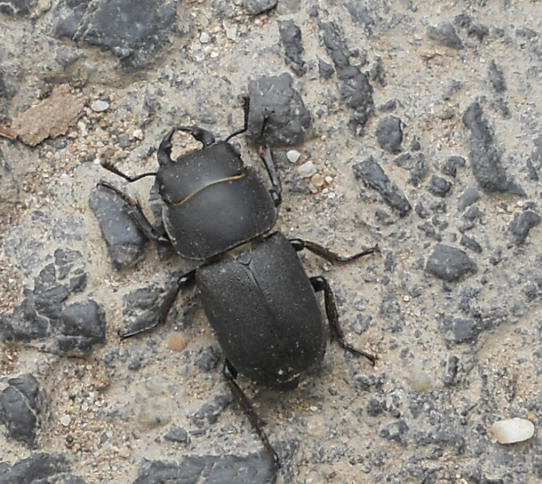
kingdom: Animalia
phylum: Arthropoda
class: Insecta
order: Coleoptera
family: Lucanidae
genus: Dorcus
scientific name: Dorcus parallelipipedus
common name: Lesser stag beetle
